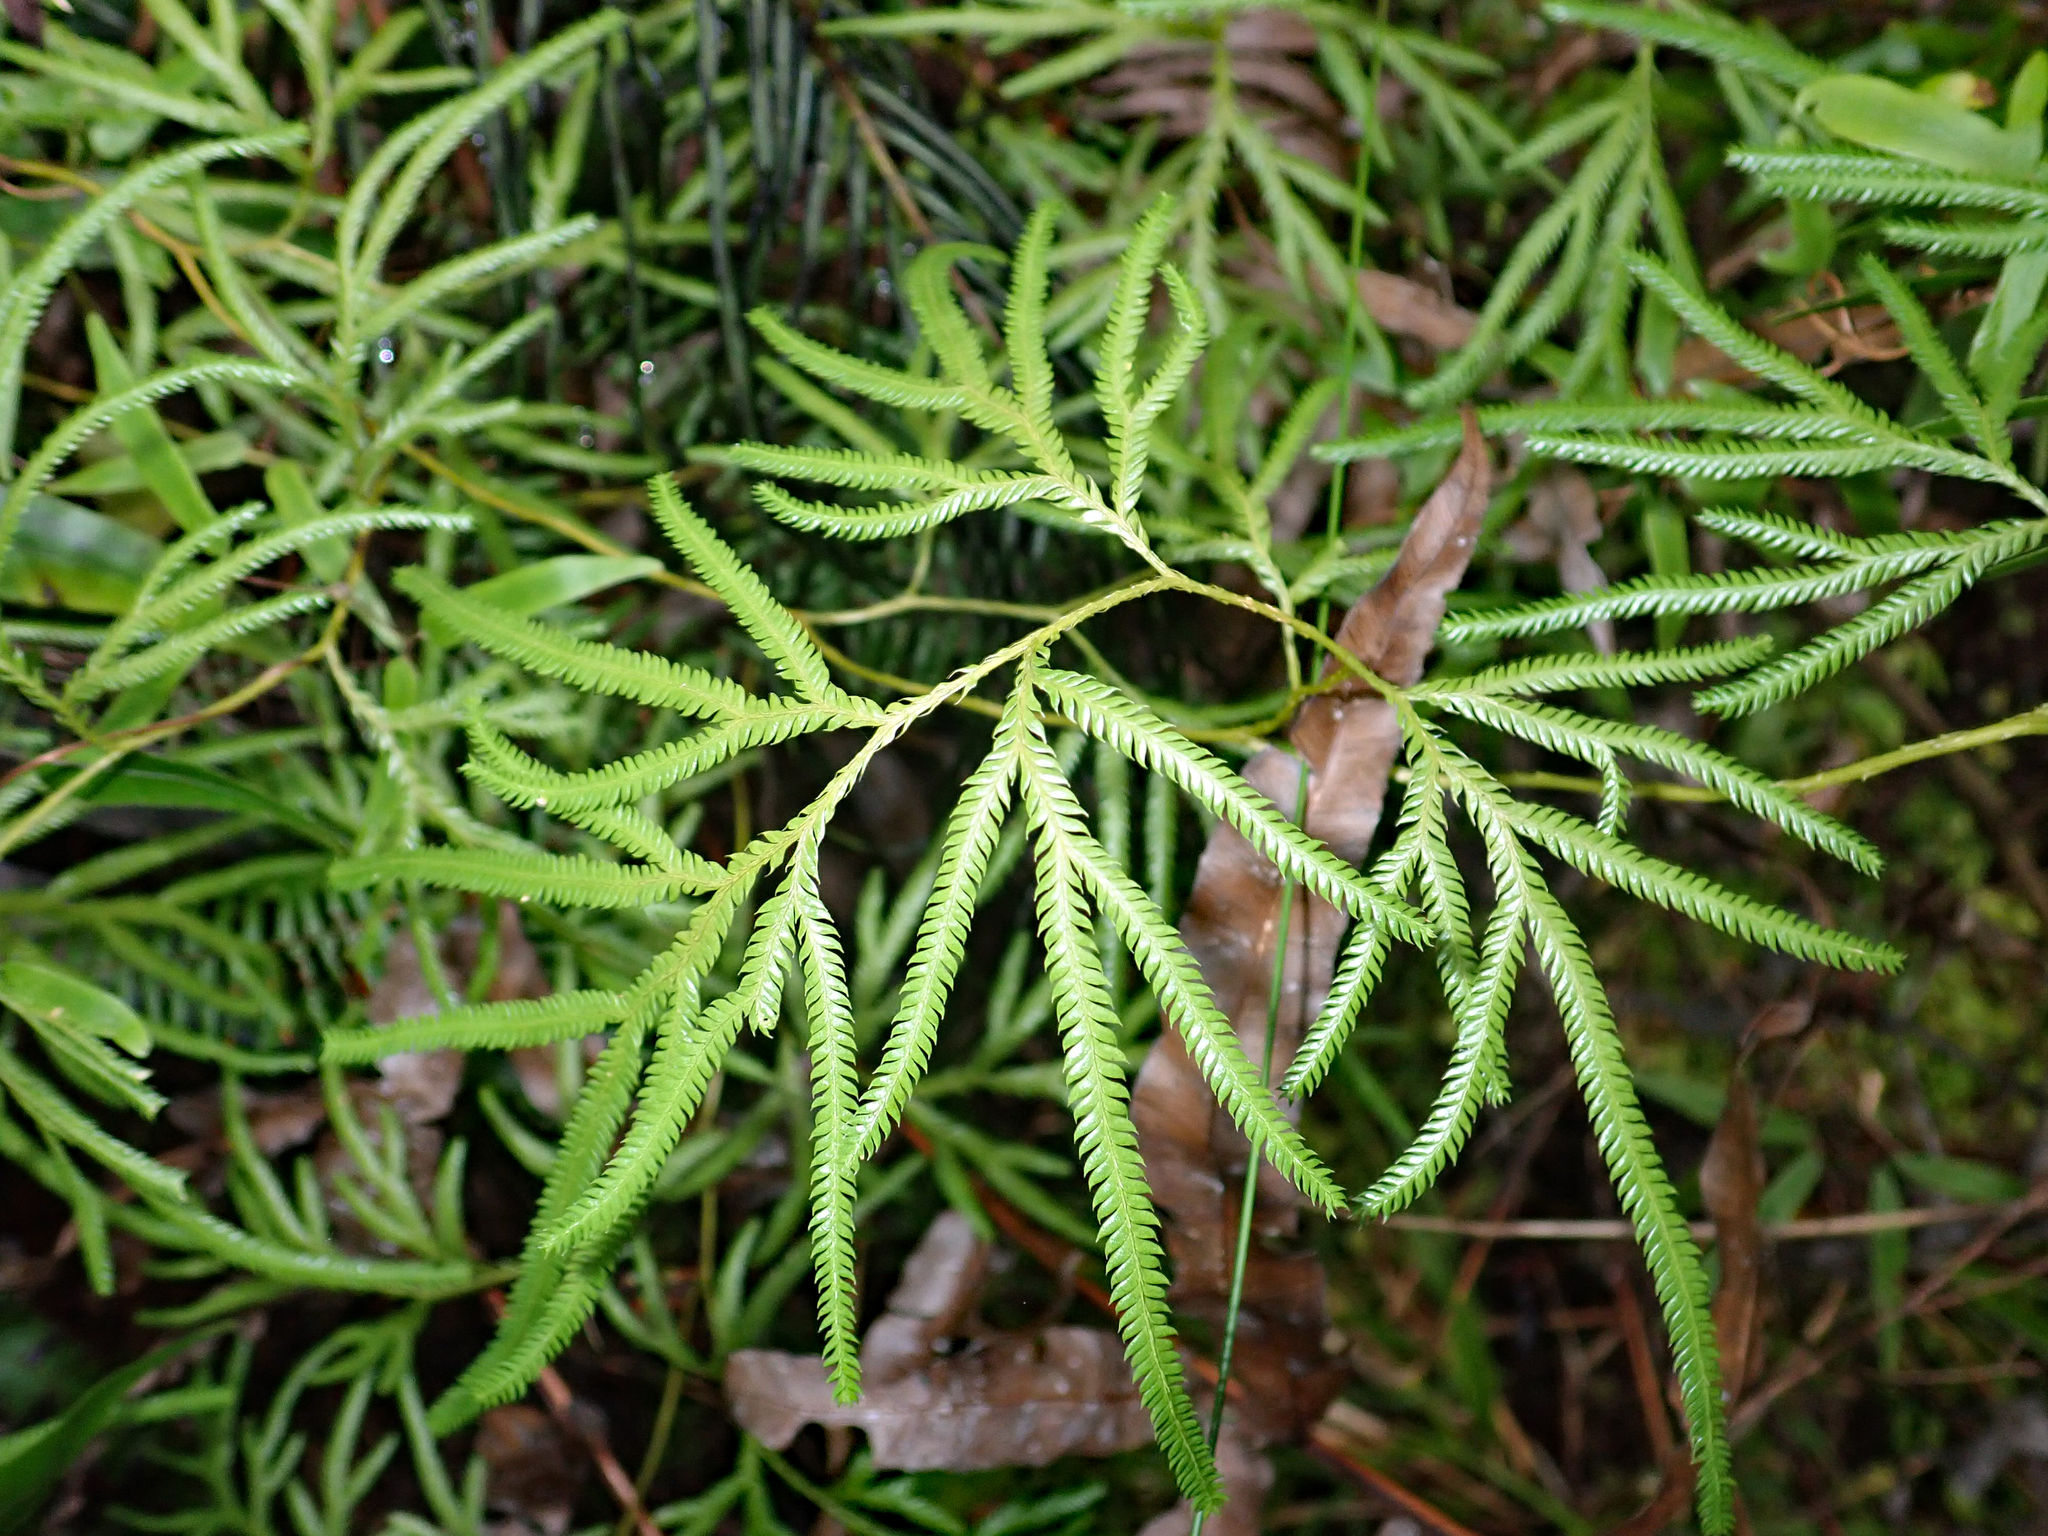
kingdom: Plantae
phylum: Tracheophyta
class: Lycopodiopsida
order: Lycopodiales
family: Lycopodiaceae
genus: Lycopodium
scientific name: Lycopodium volubile
